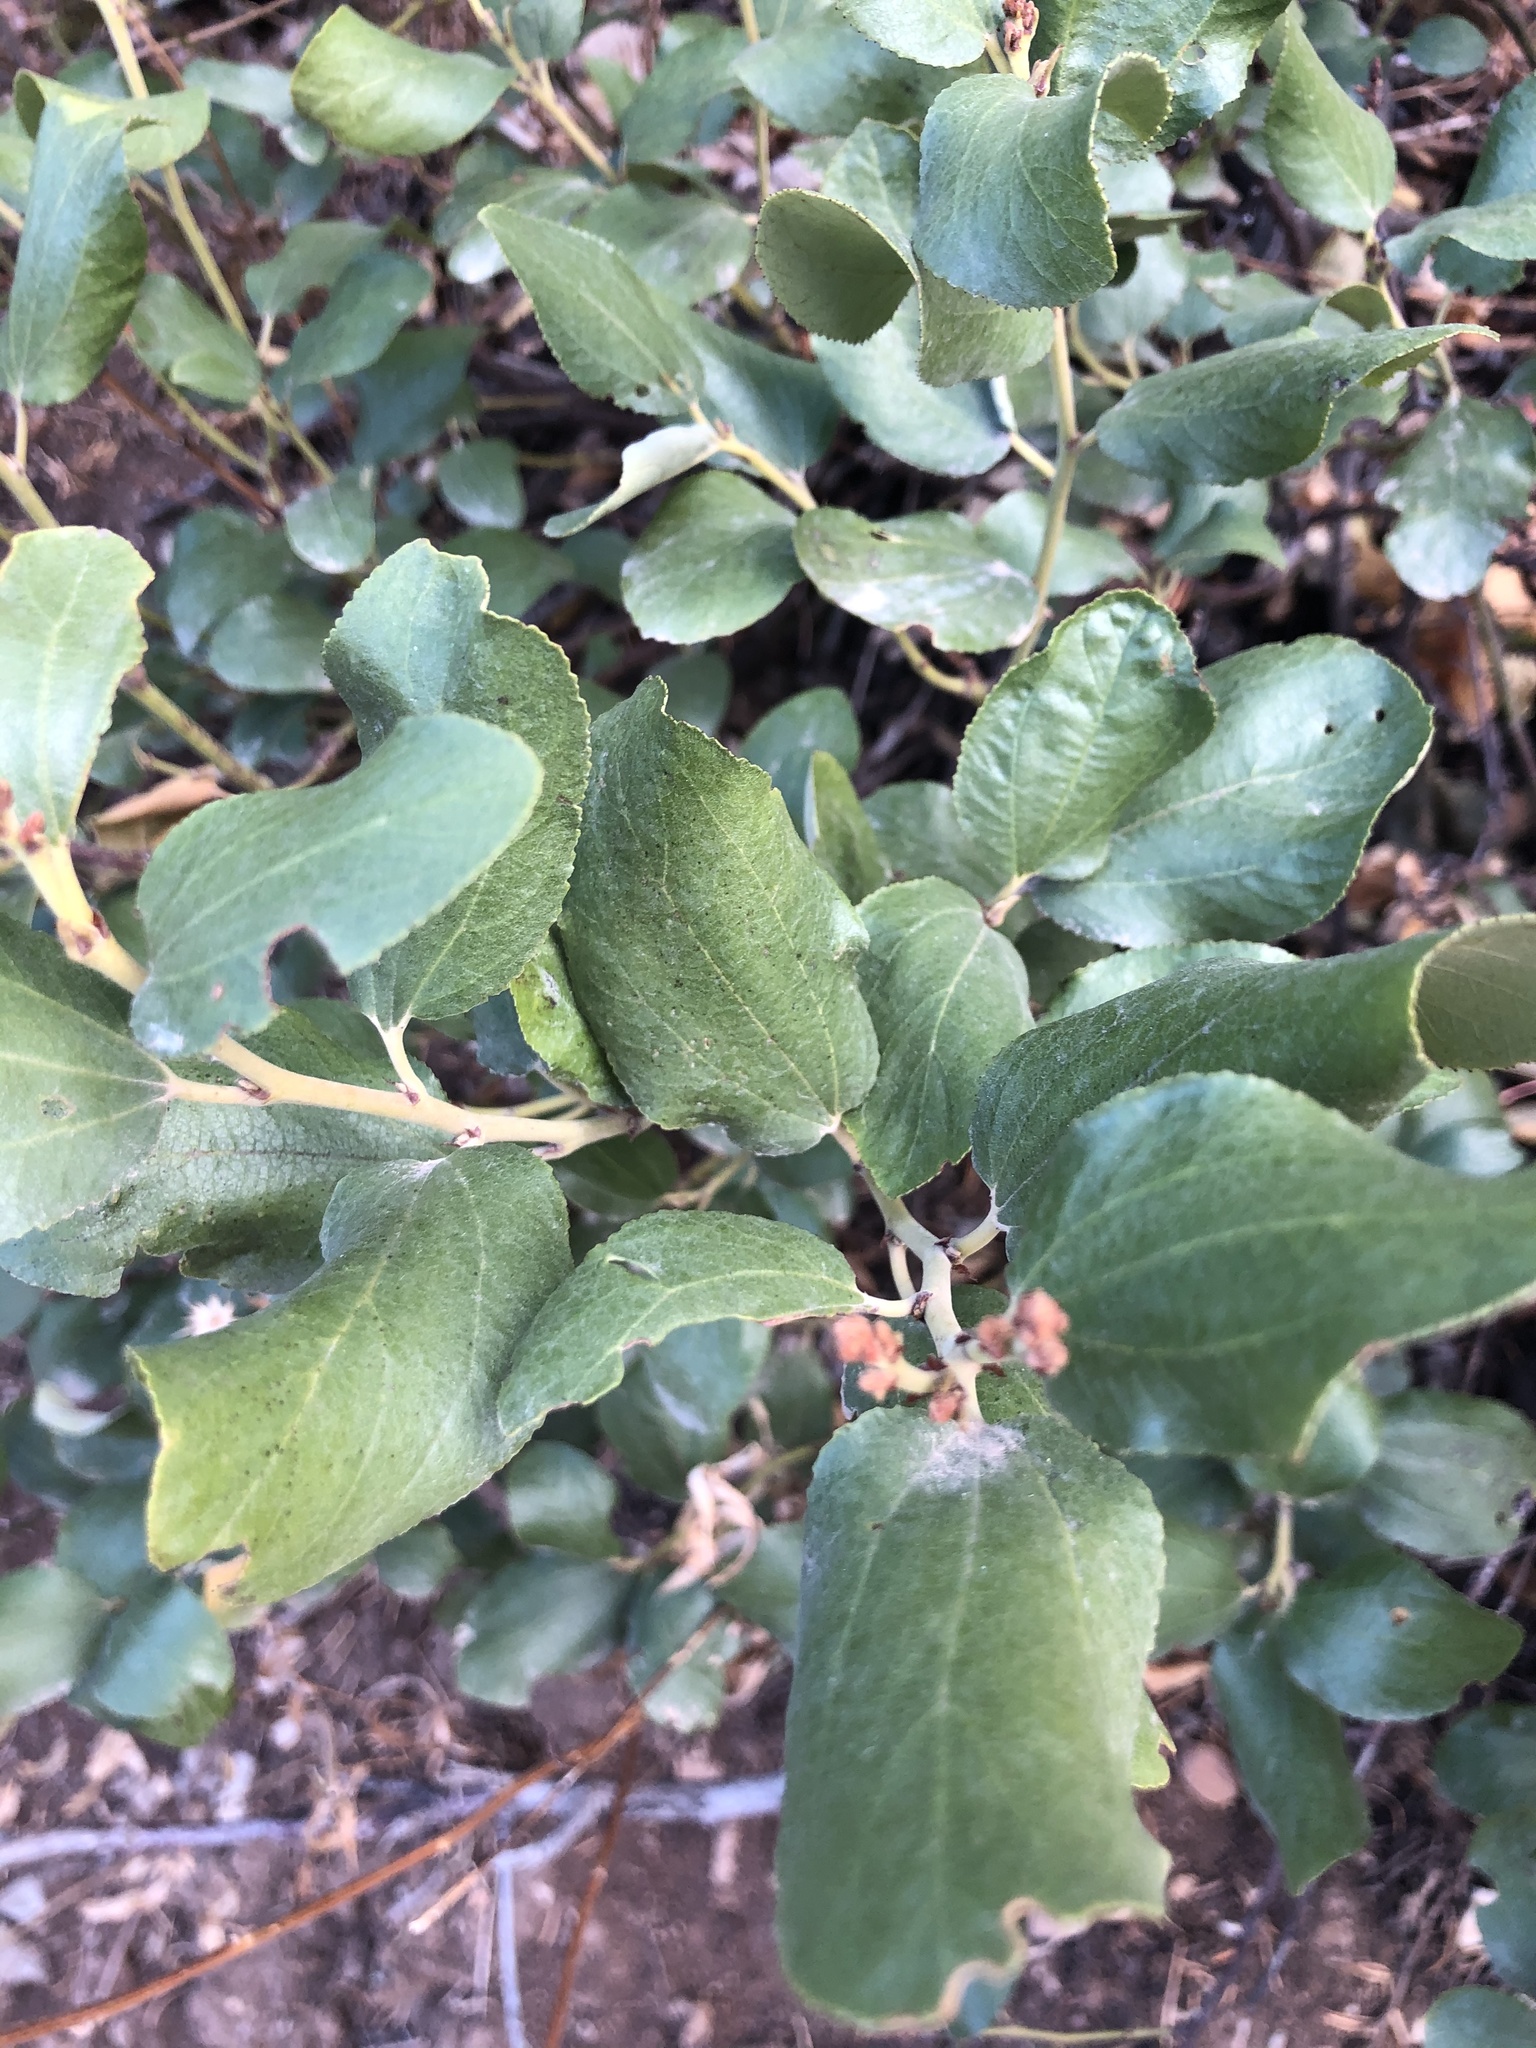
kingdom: Plantae
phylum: Tracheophyta
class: Magnoliopsida
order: Rosales
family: Rhamnaceae
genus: Ceanothus
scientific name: Ceanothus velutinus
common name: Snowbrush
